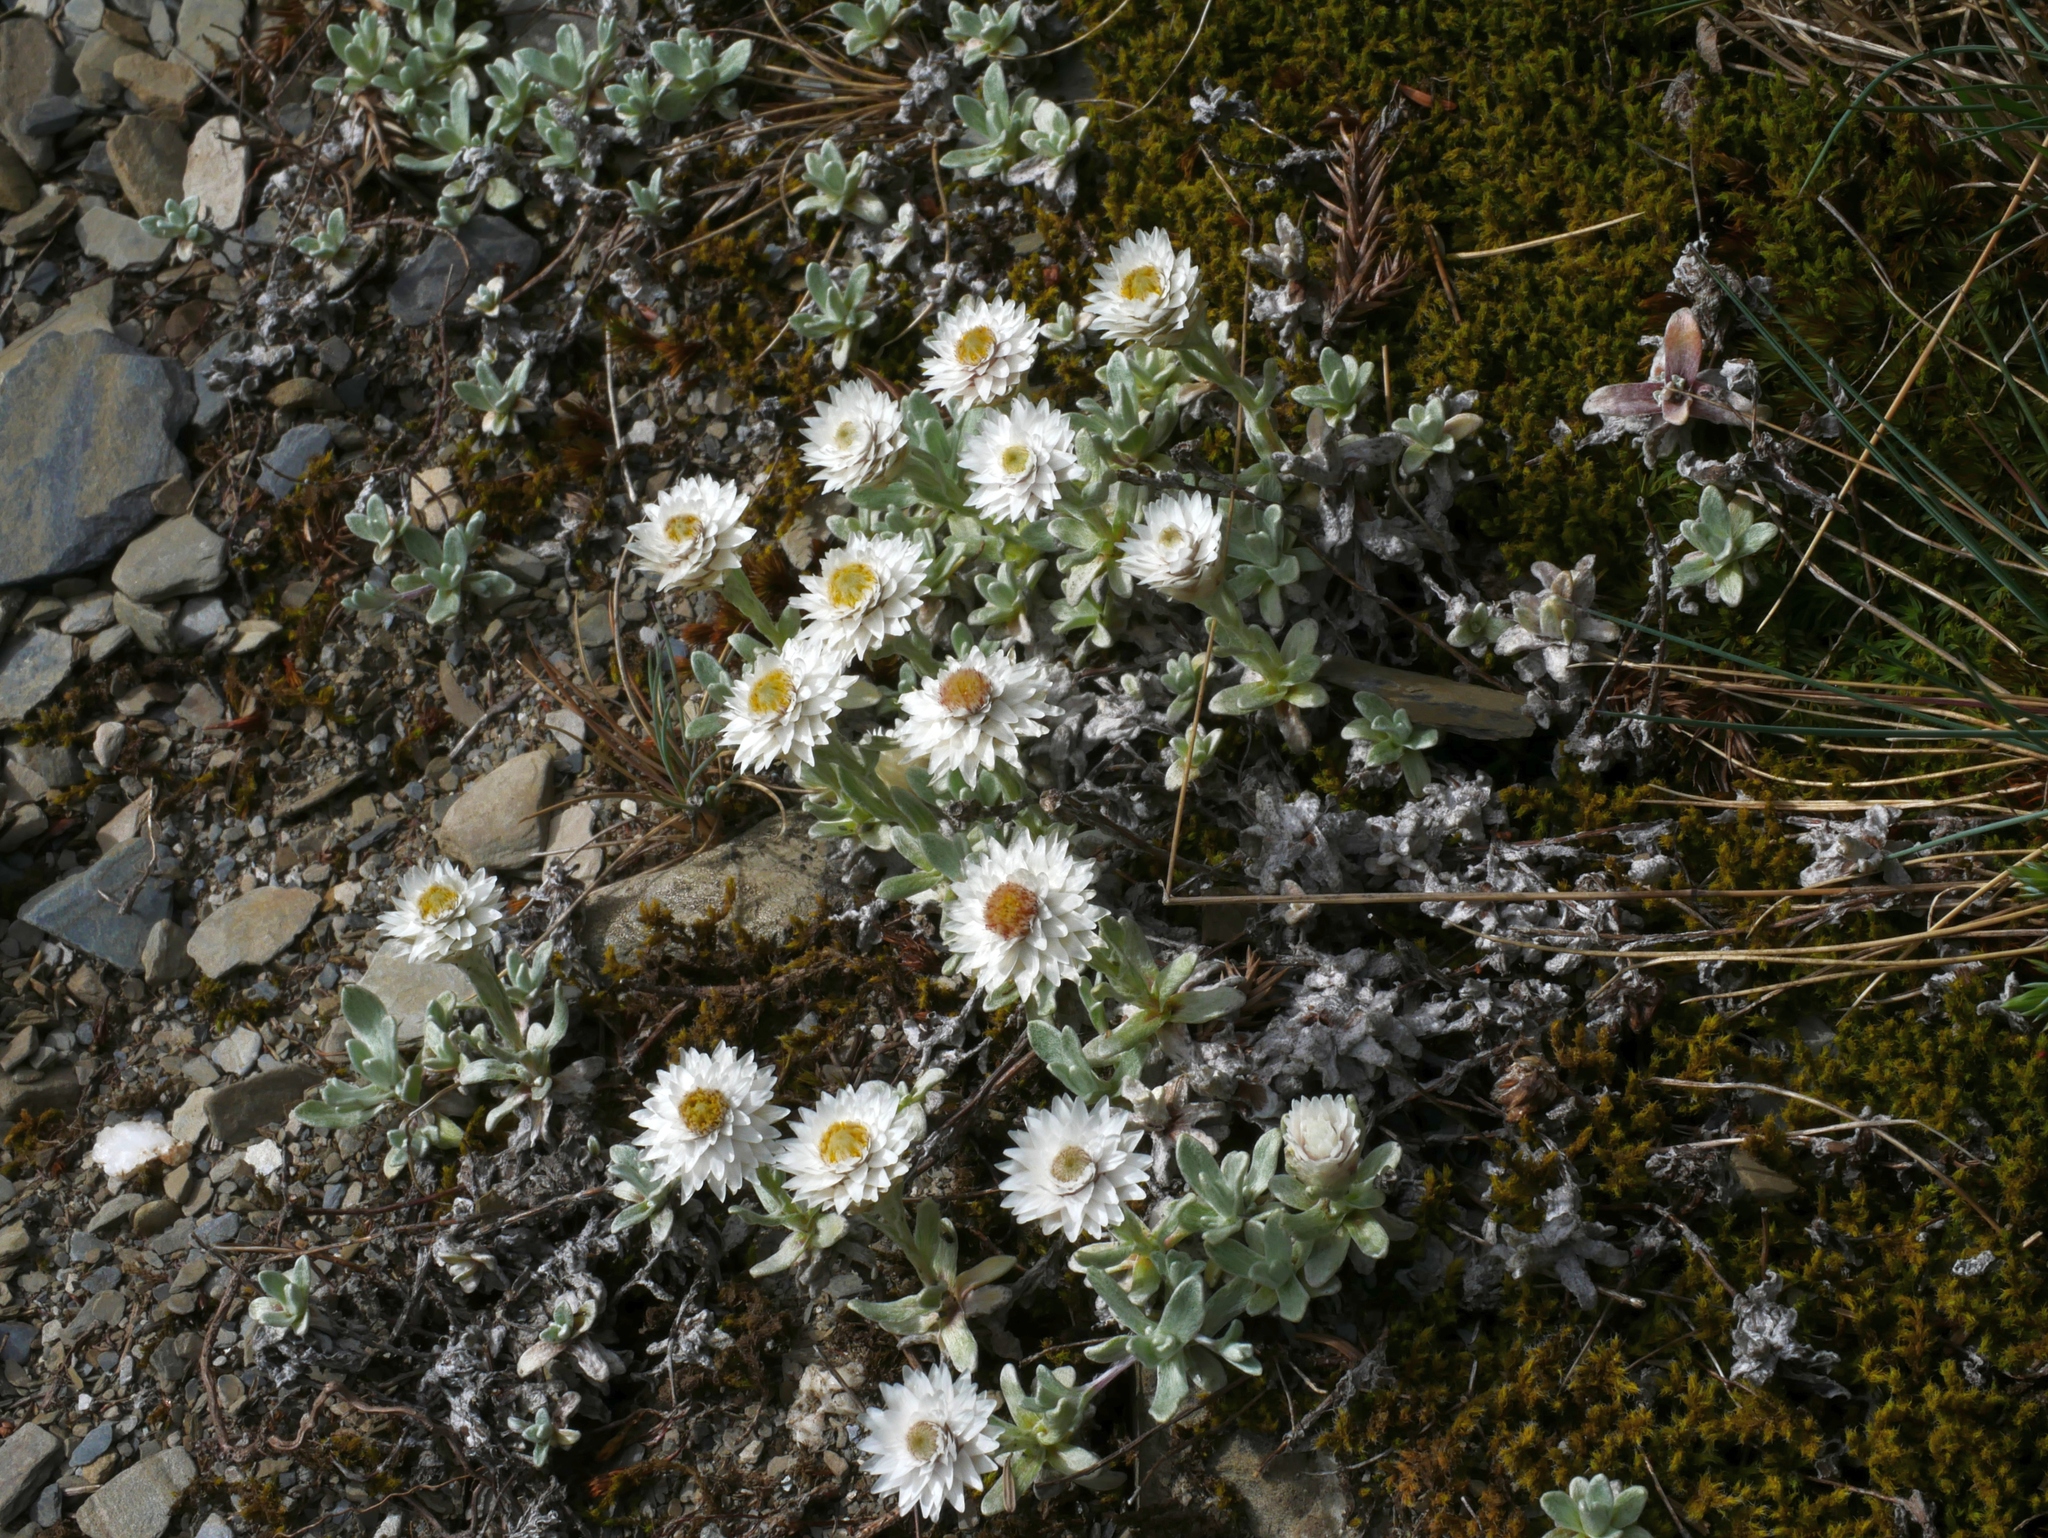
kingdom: Plantae
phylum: Tracheophyta
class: Magnoliopsida
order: Asterales
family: Asteraceae
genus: Anaphalis
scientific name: Anaphalis nepalensis
